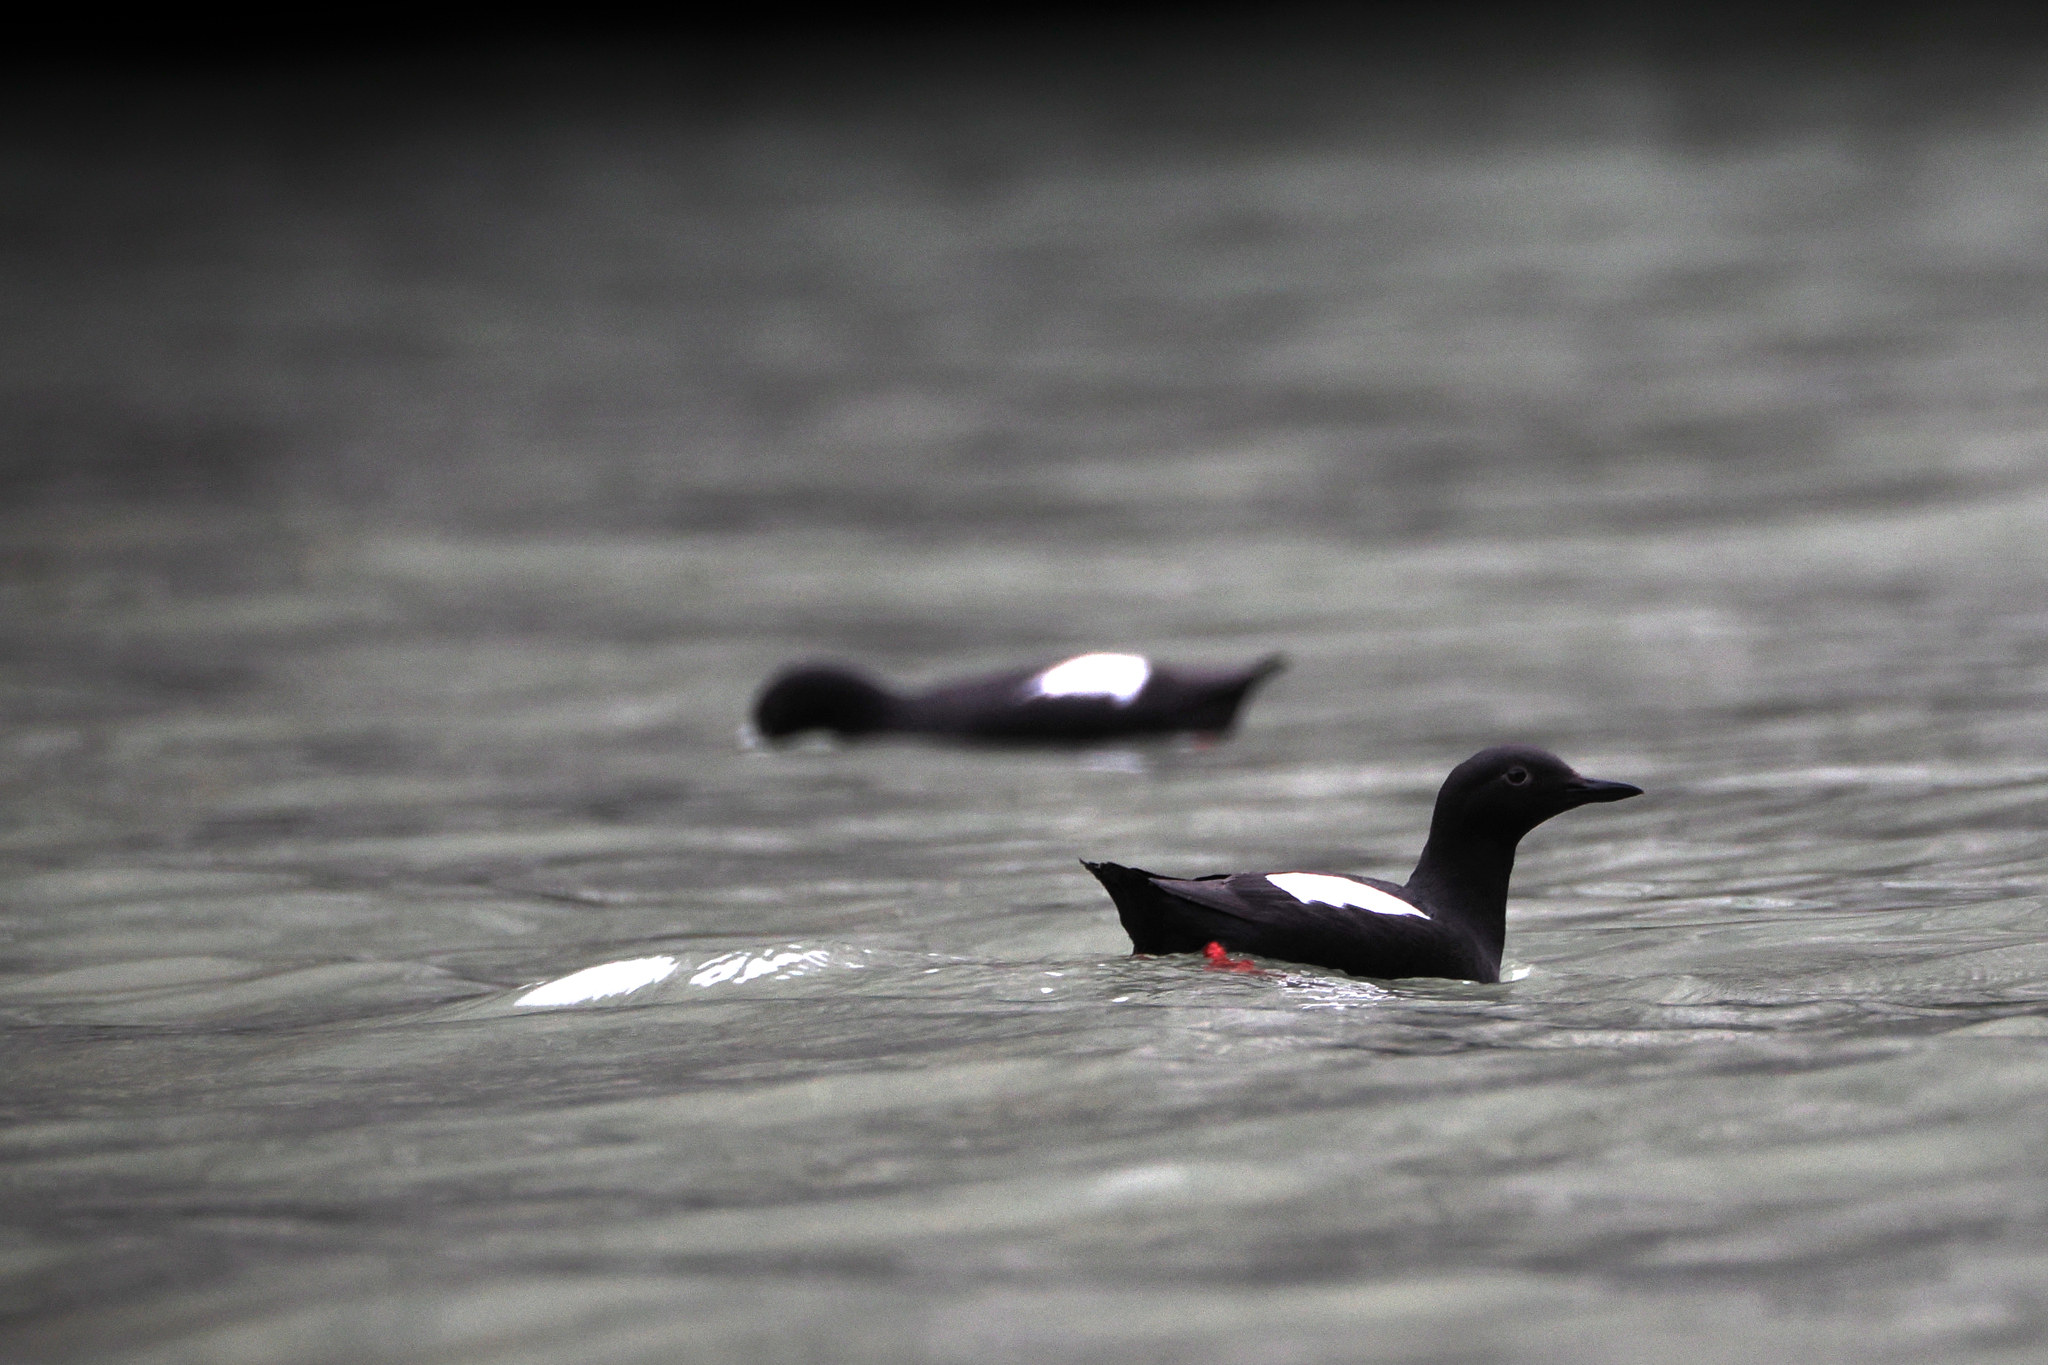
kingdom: Animalia
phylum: Chordata
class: Aves
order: Charadriiformes
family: Alcidae
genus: Cepphus
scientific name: Cepphus columba
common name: Pigeon guillemot
